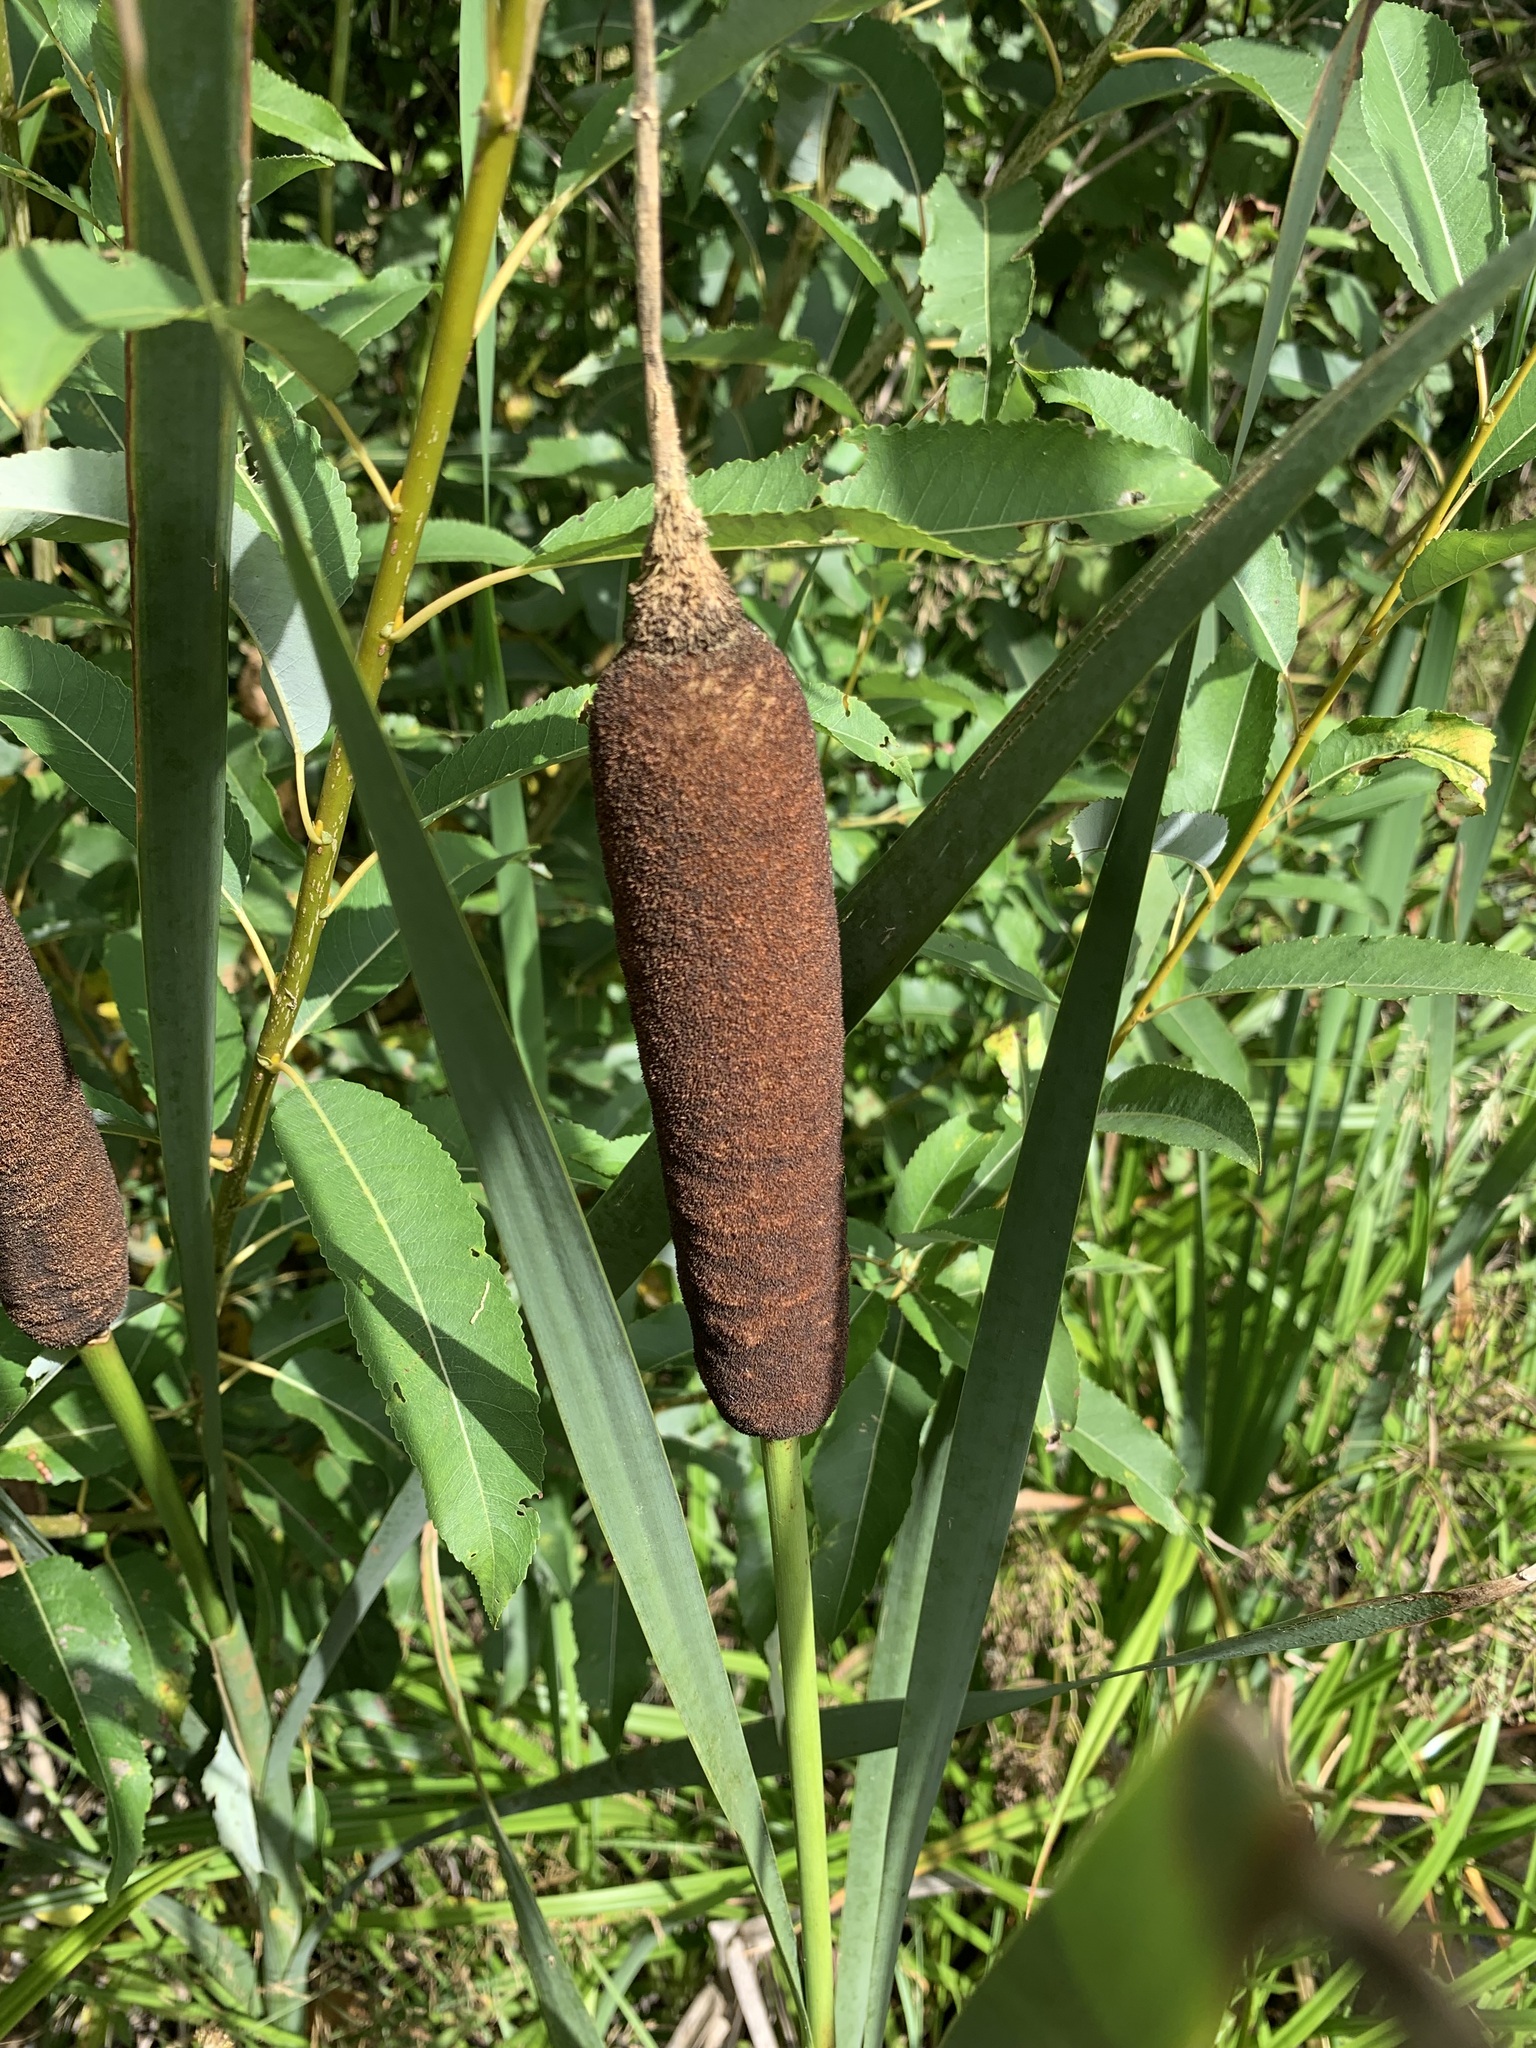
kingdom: Plantae
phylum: Tracheophyta
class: Liliopsida
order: Poales
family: Typhaceae
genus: Typha
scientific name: Typha latifolia
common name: Broadleaf cattail
